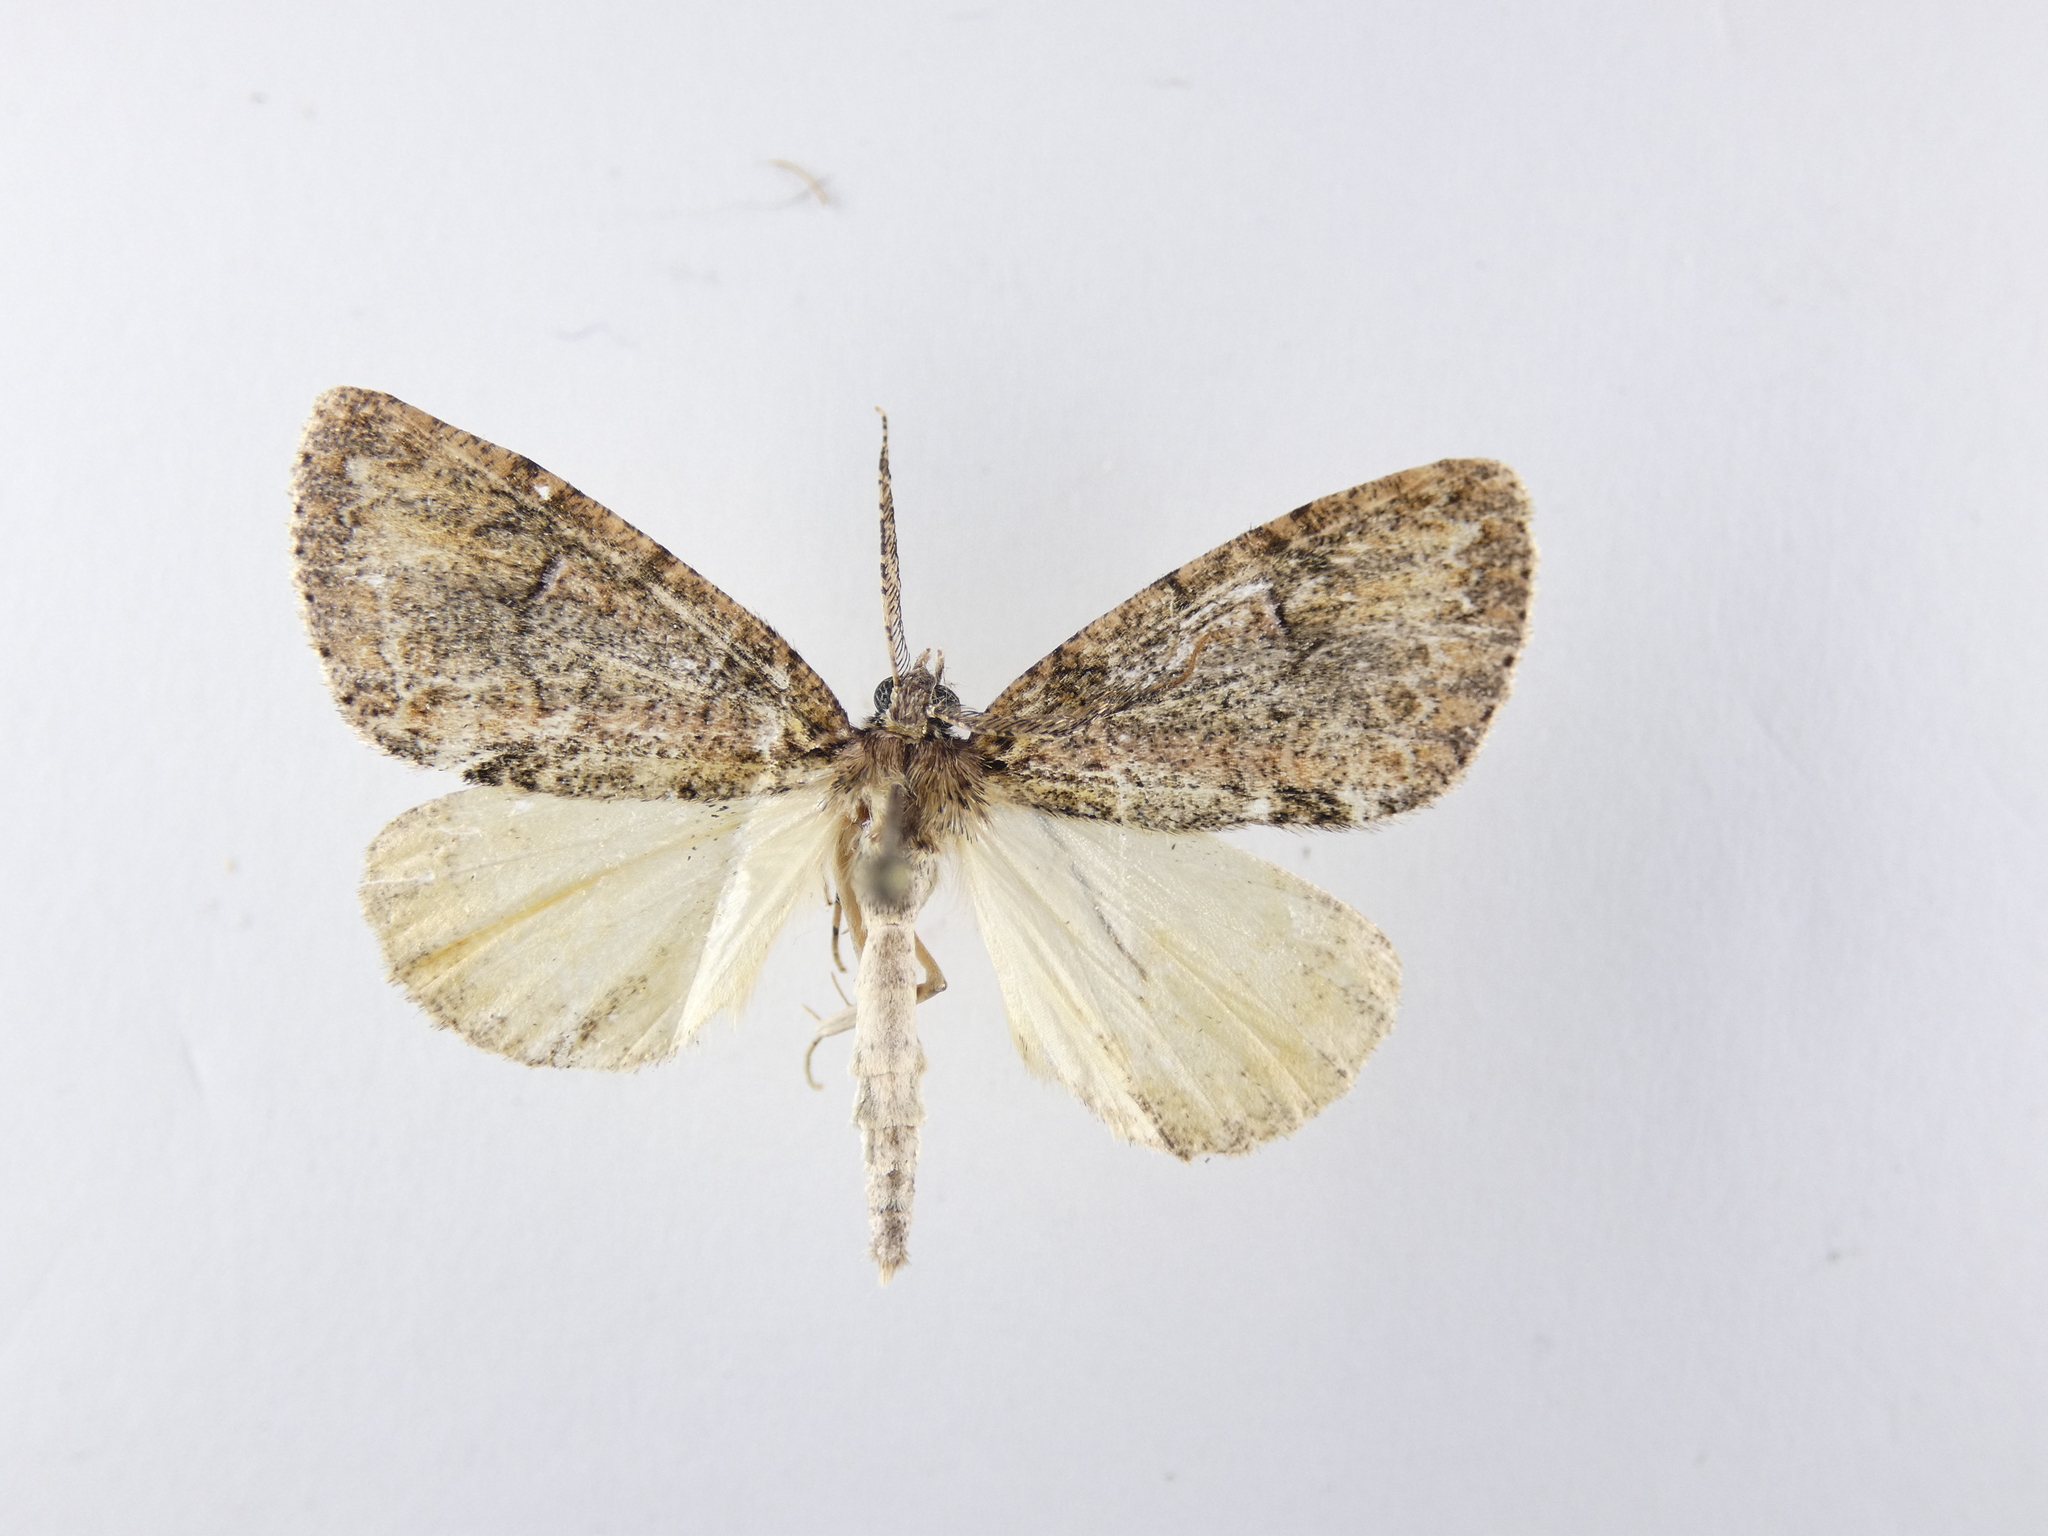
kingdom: Animalia
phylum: Arthropoda
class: Insecta
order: Lepidoptera
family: Geometridae
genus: Pseudocoremia
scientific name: Pseudocoremia suavis
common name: Common forest looper
